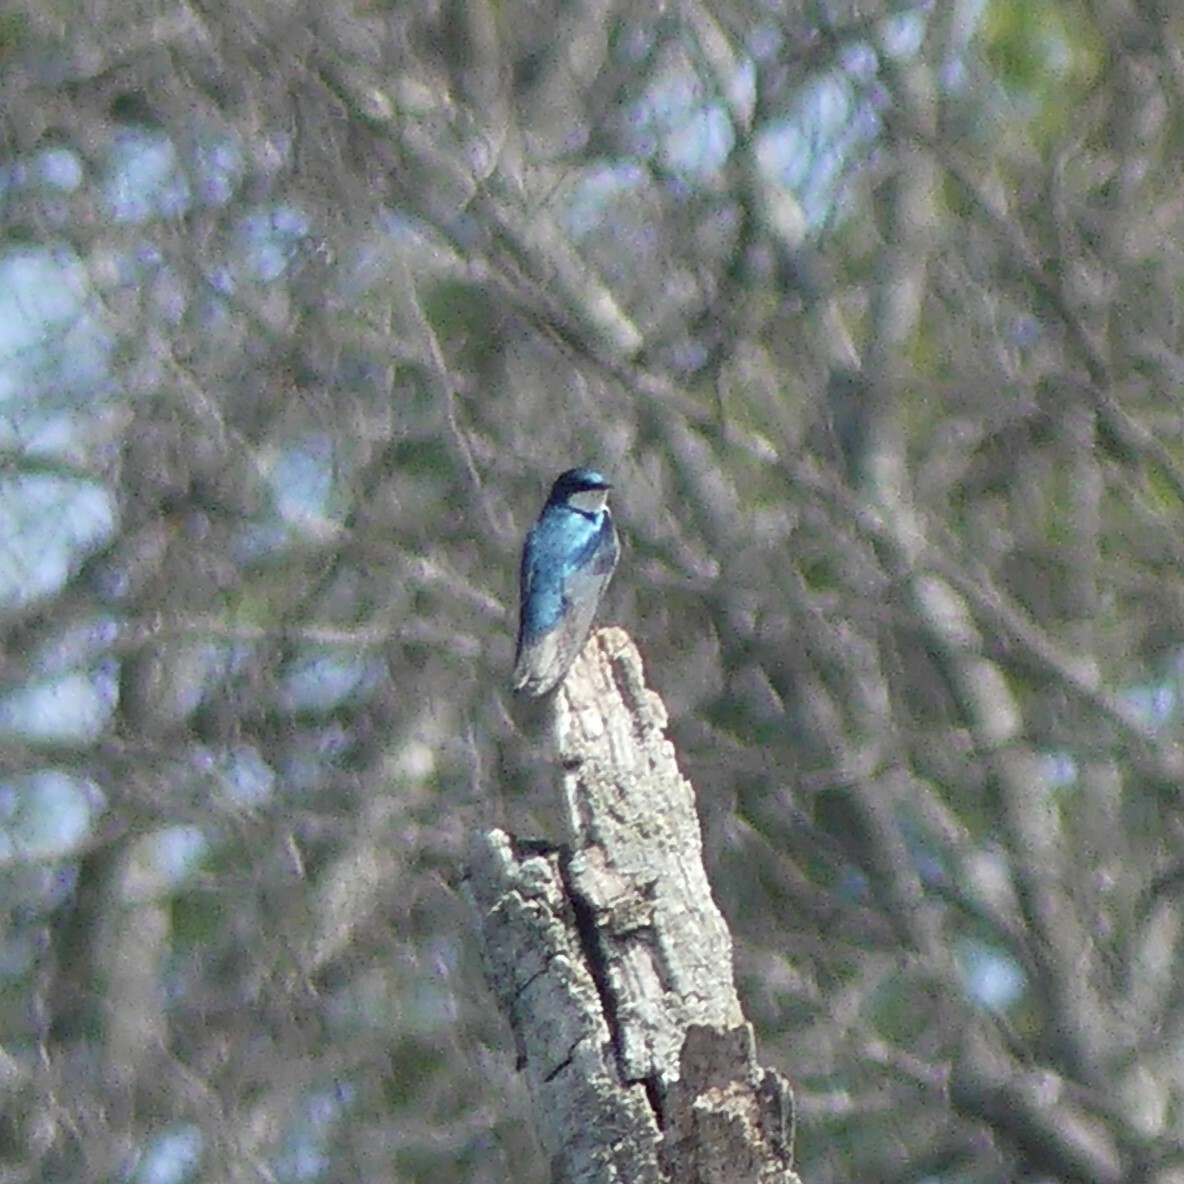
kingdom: Animalia
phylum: Chordata
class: Aves
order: Passeriformes
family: Hirundinidae
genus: Tachycineta
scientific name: Tachycineta bicolor
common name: Tree swallow
